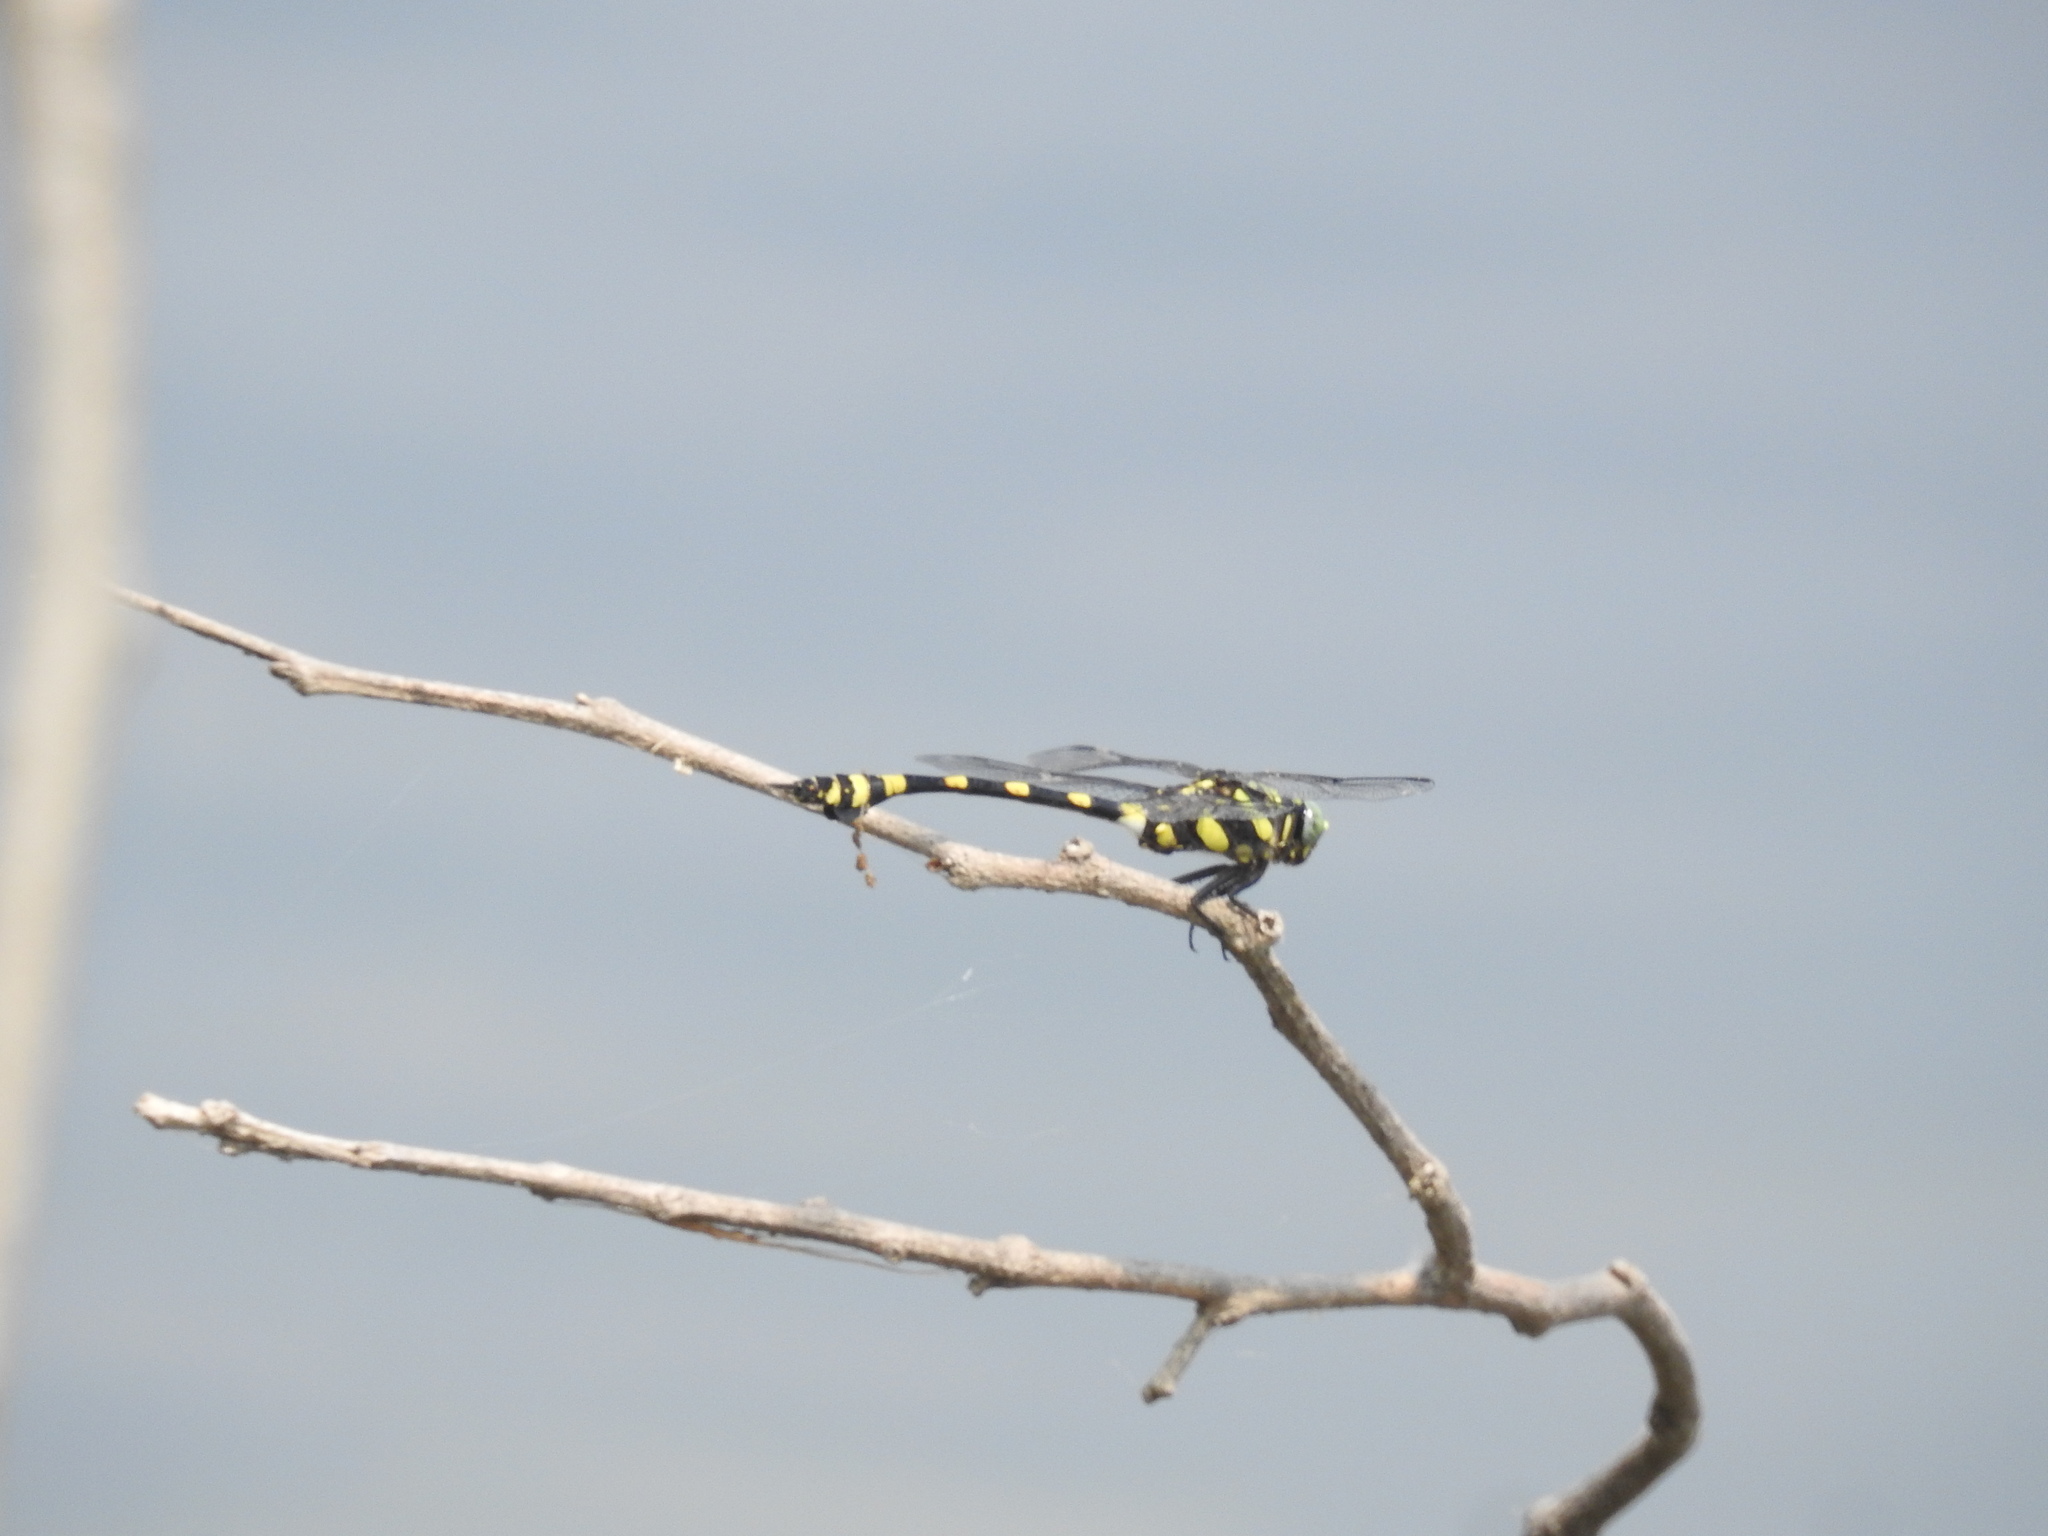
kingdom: Animalia
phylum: Arthropoda
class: Insecta
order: Odonata
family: Gomphidae
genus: Ictinogomphus
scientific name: Ictinogomphus rapax
